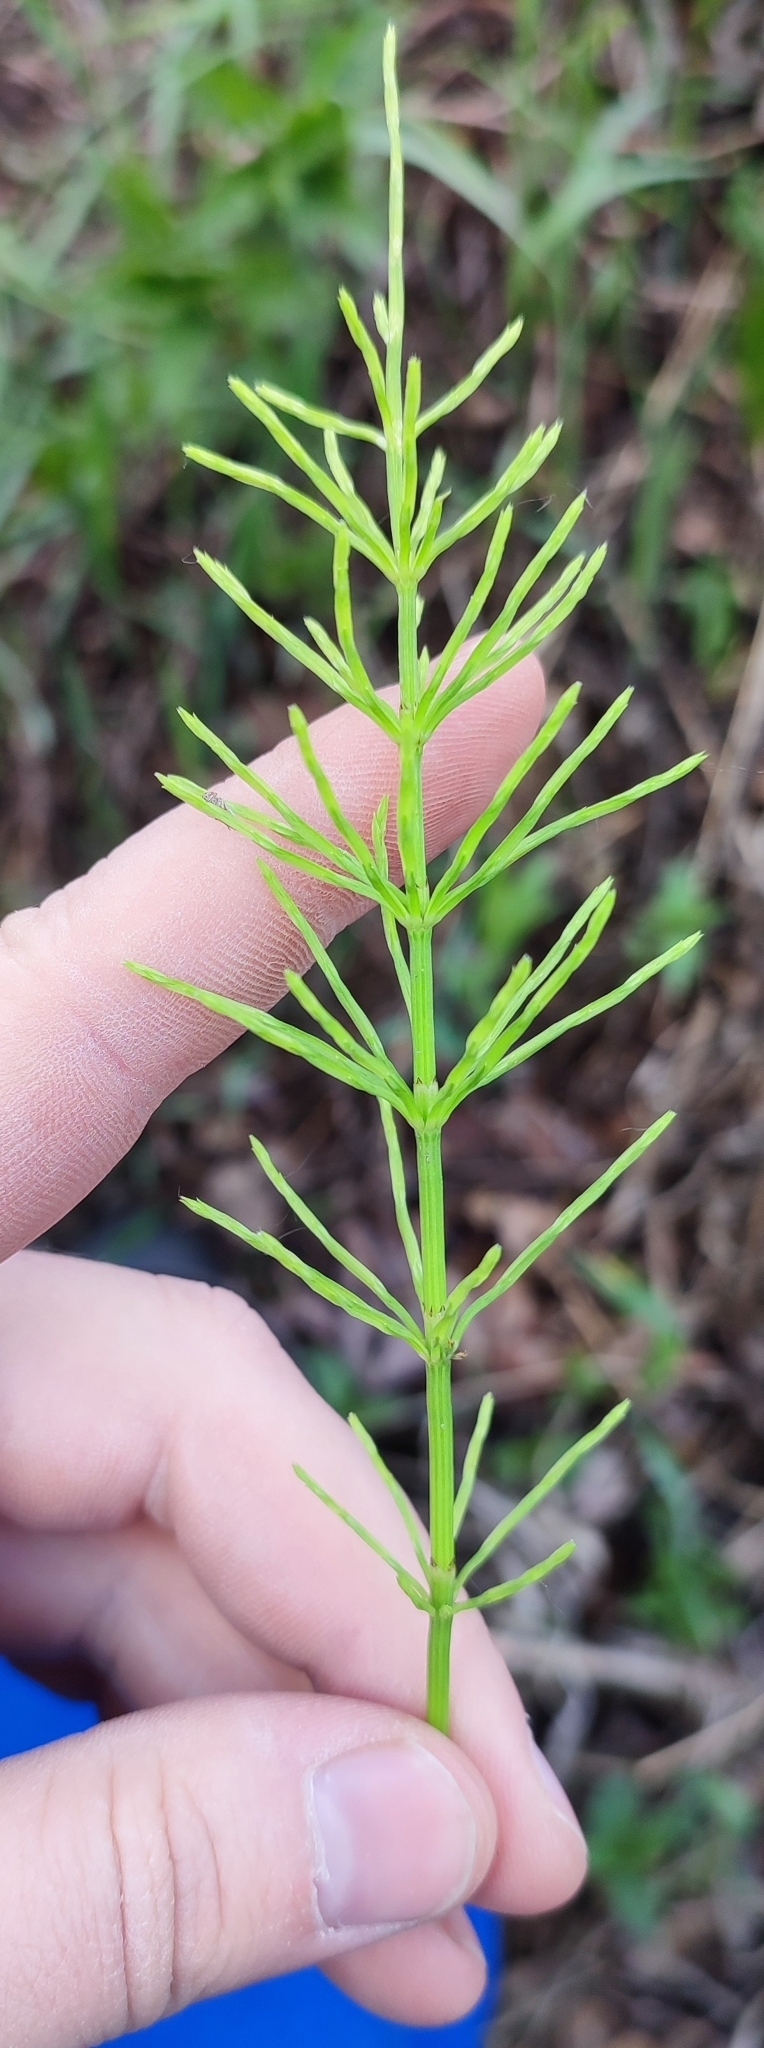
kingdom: Plantae
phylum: Tracheophyta
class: Polypodiopsida
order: Equisetales
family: Equisetaceae
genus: Equisetum
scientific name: Equisetum arvense
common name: Field horsetail
